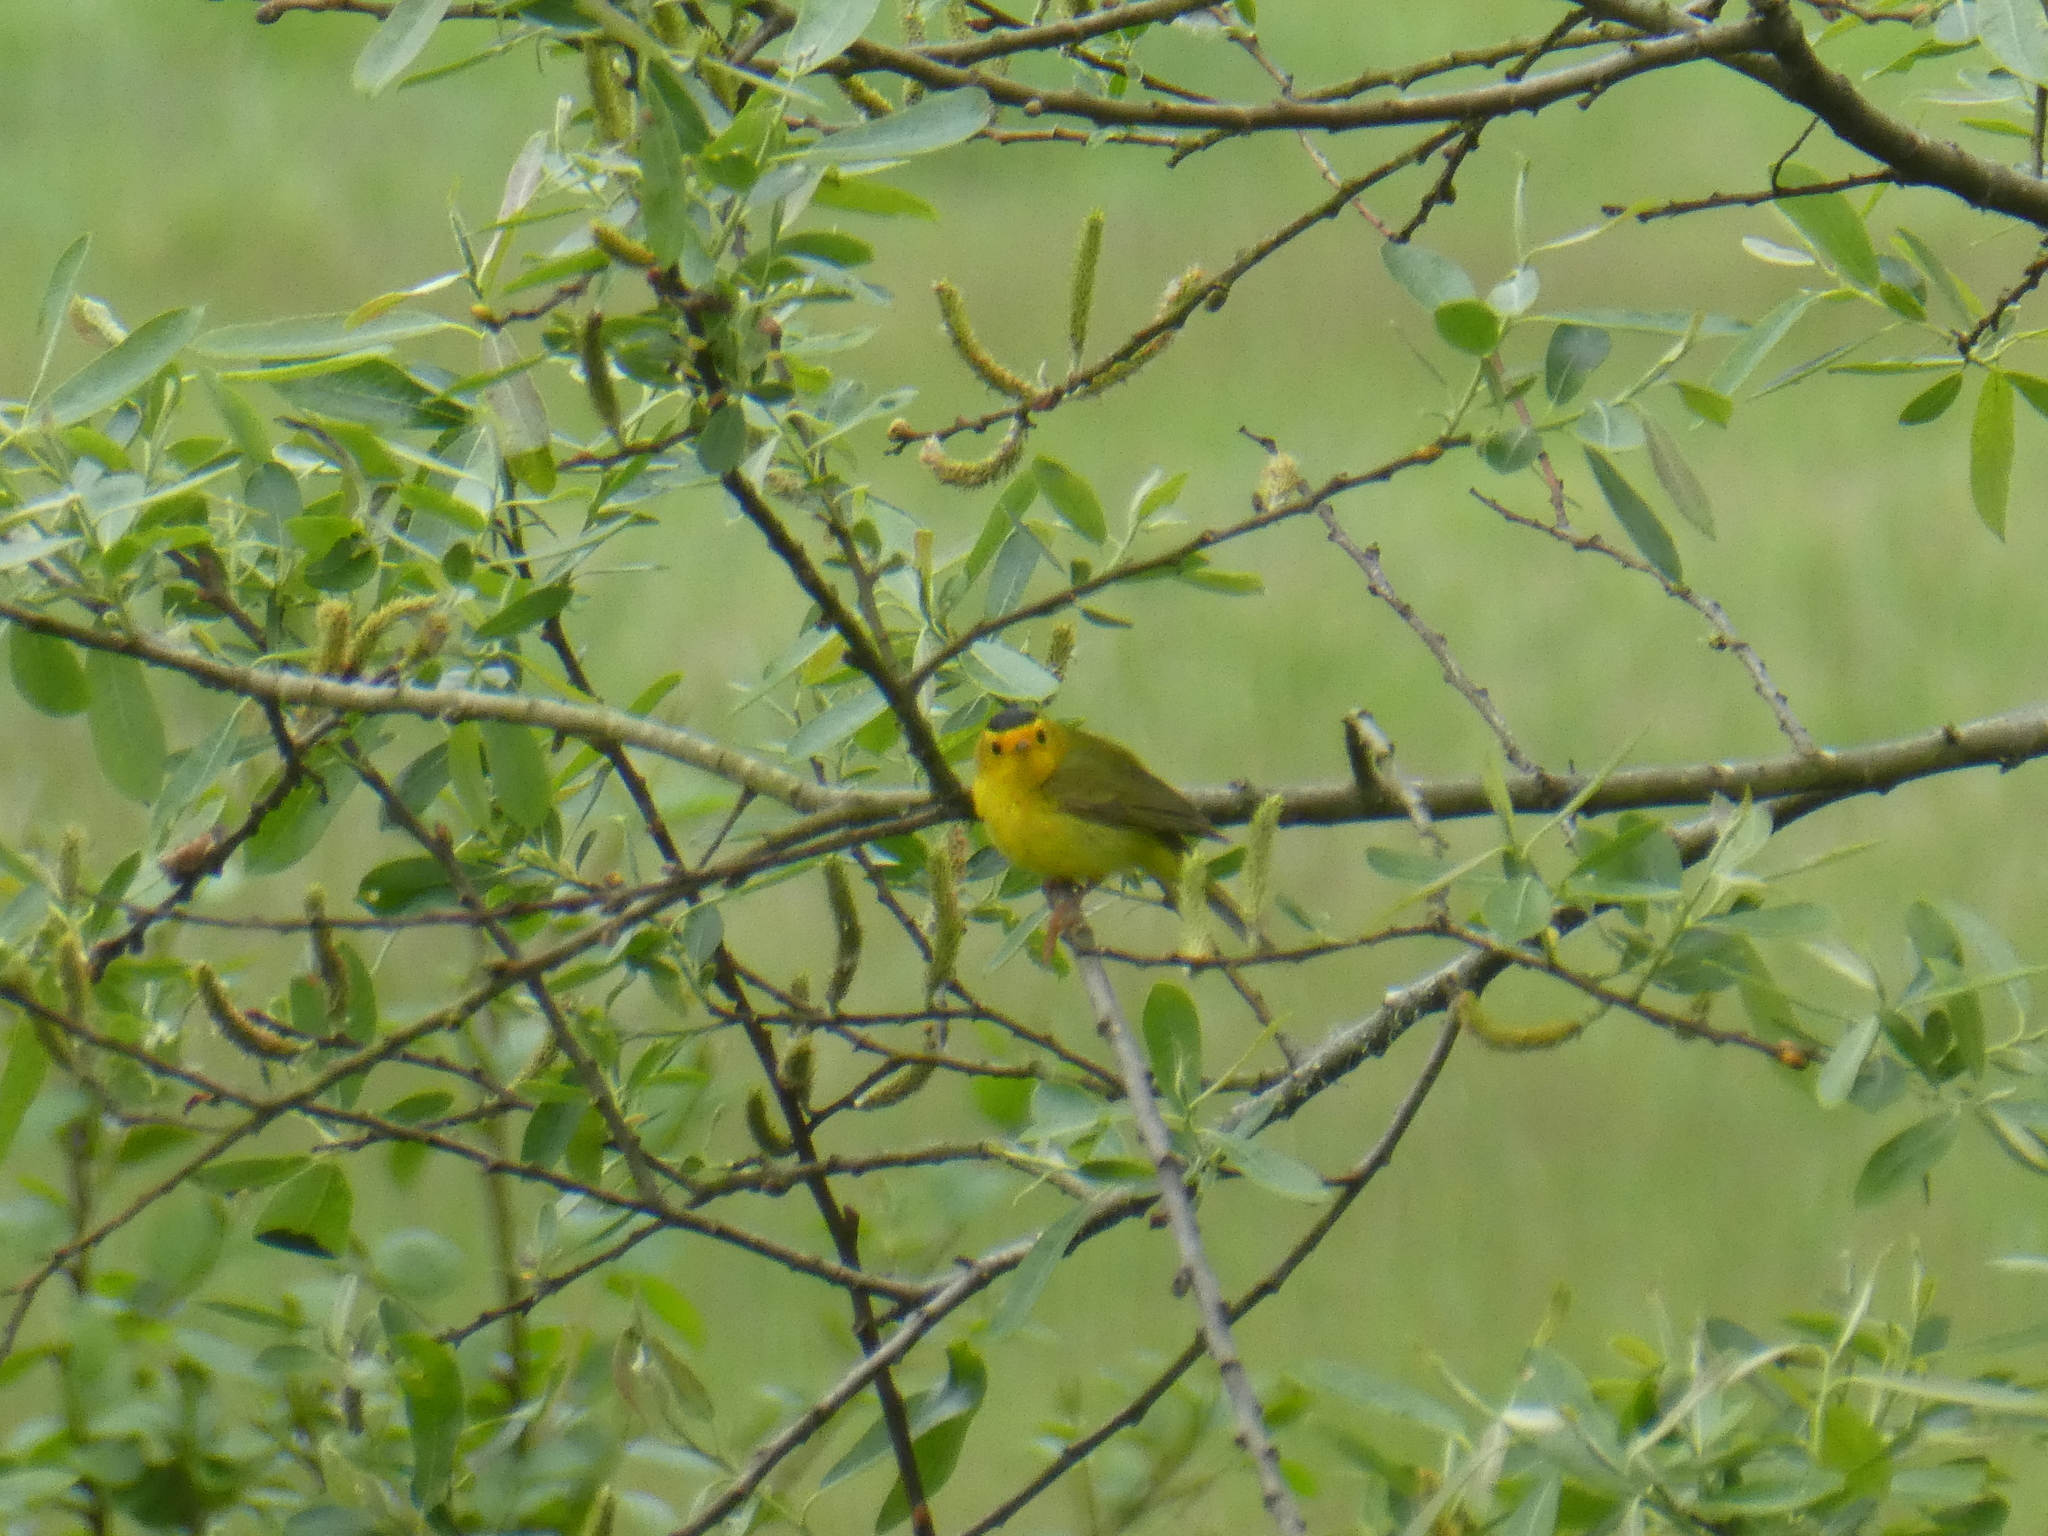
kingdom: Animalia
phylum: Chordata
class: Aves
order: Passeriformes
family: Parulidae
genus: Cardellina
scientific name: Cardellina pusilla
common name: Wilson's warbler
